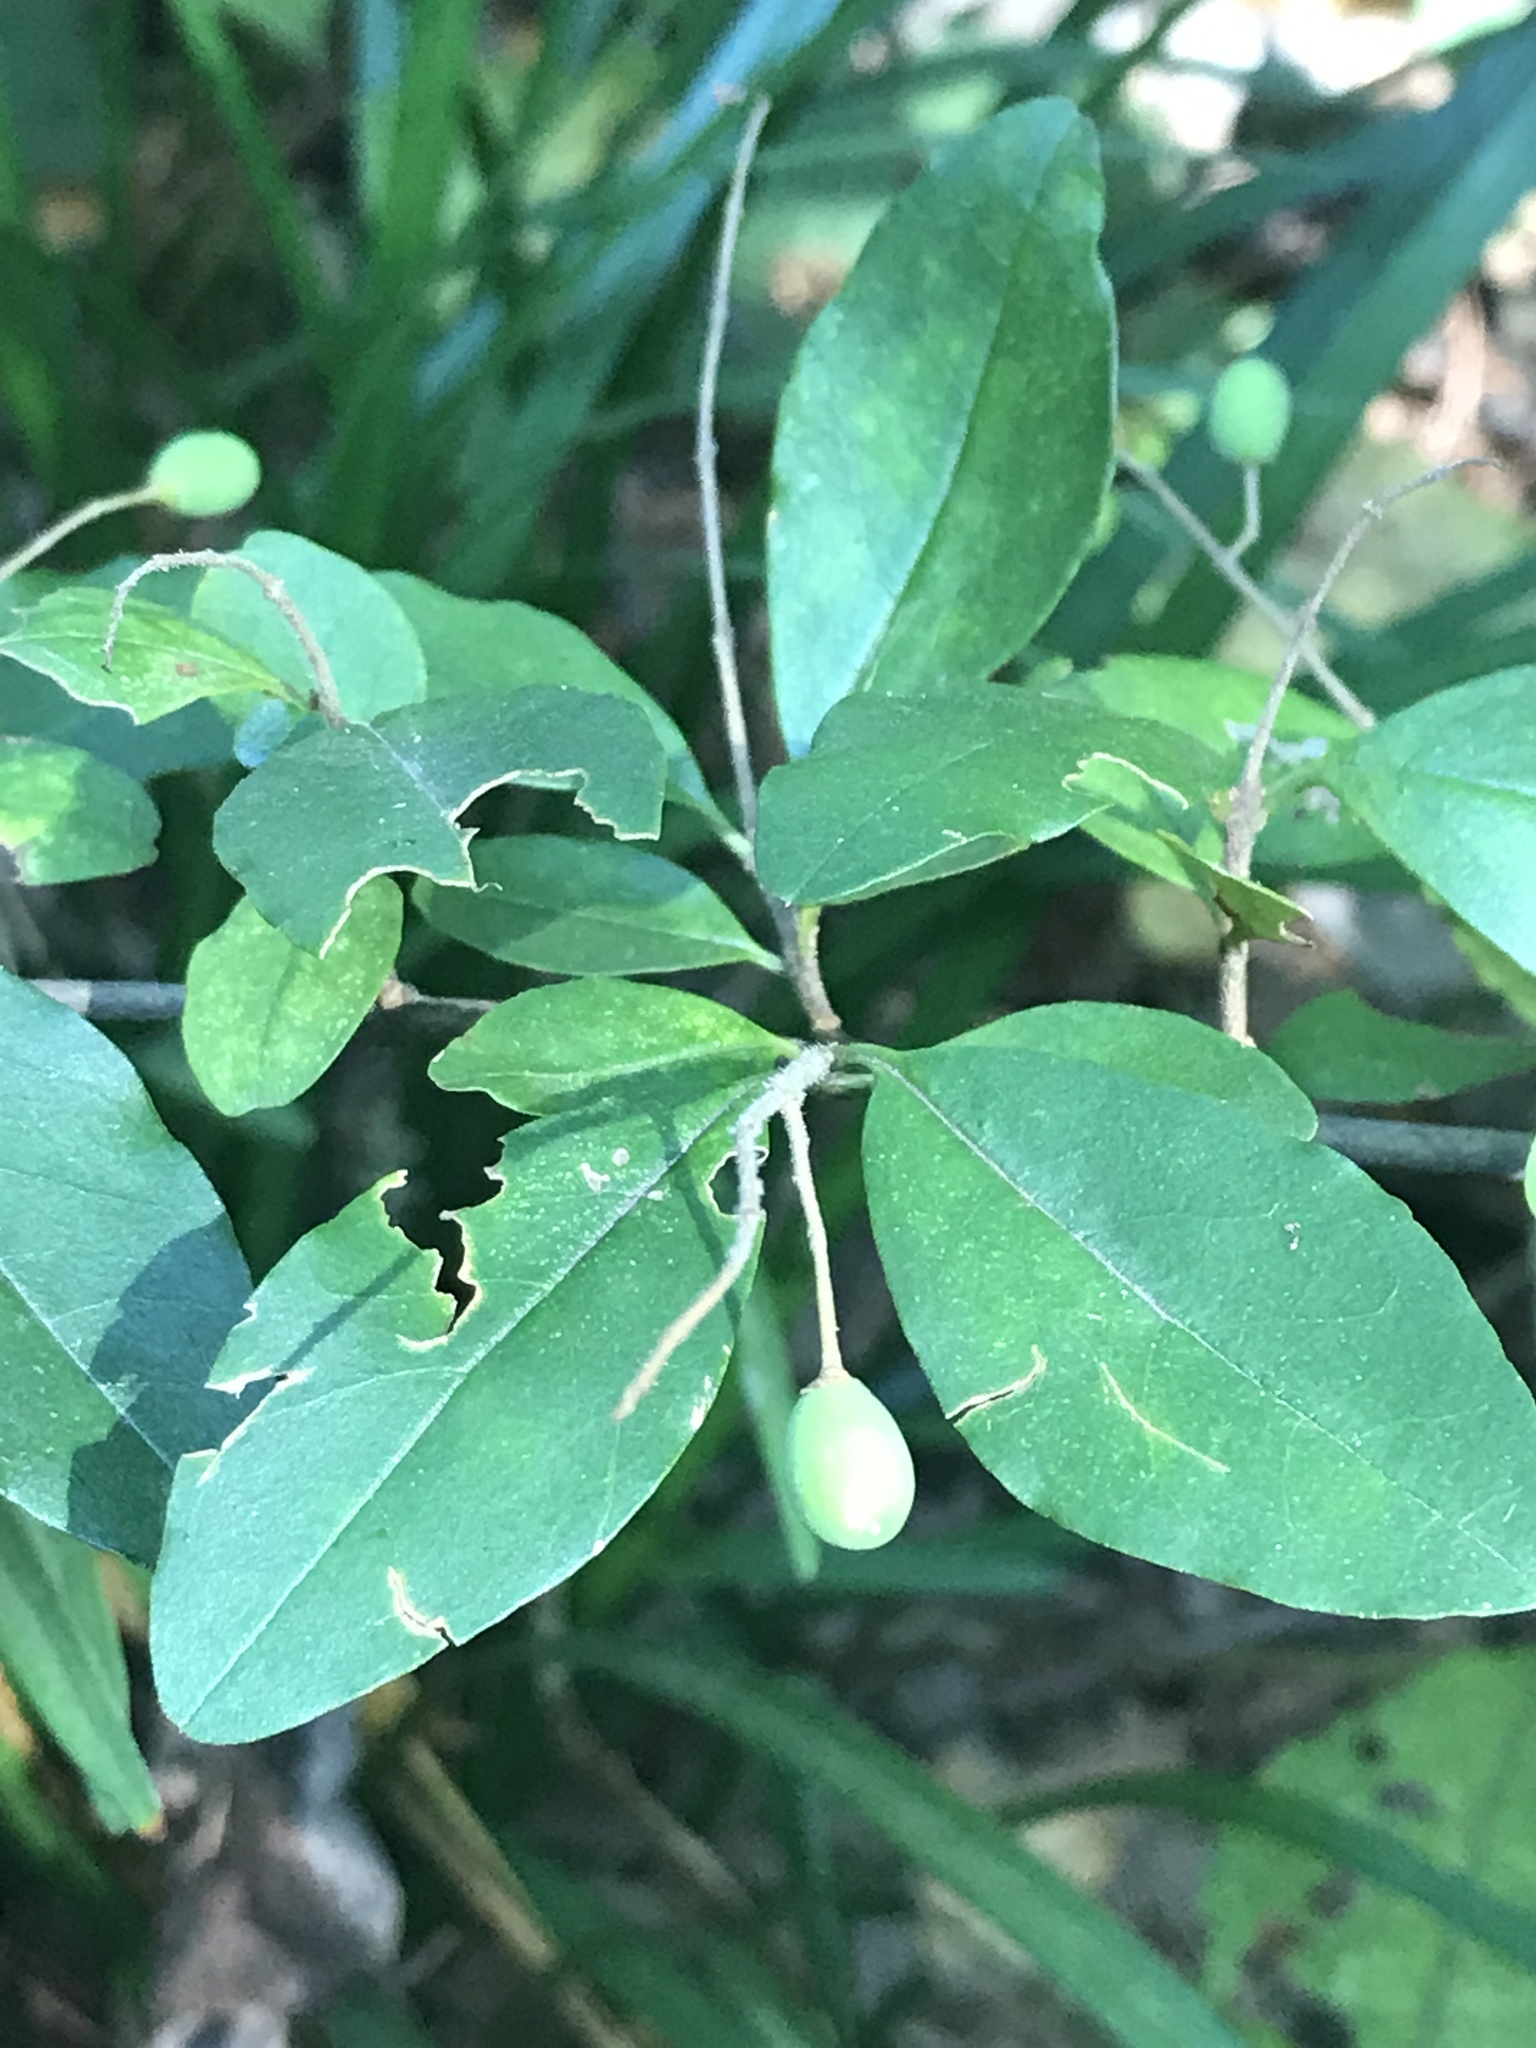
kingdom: Plantae
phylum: Tracheophyta
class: Magnoliopsida
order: Lamiales
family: Oleaceae
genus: Ligustrum
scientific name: Ligustrum sinense
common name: Chinese privet
